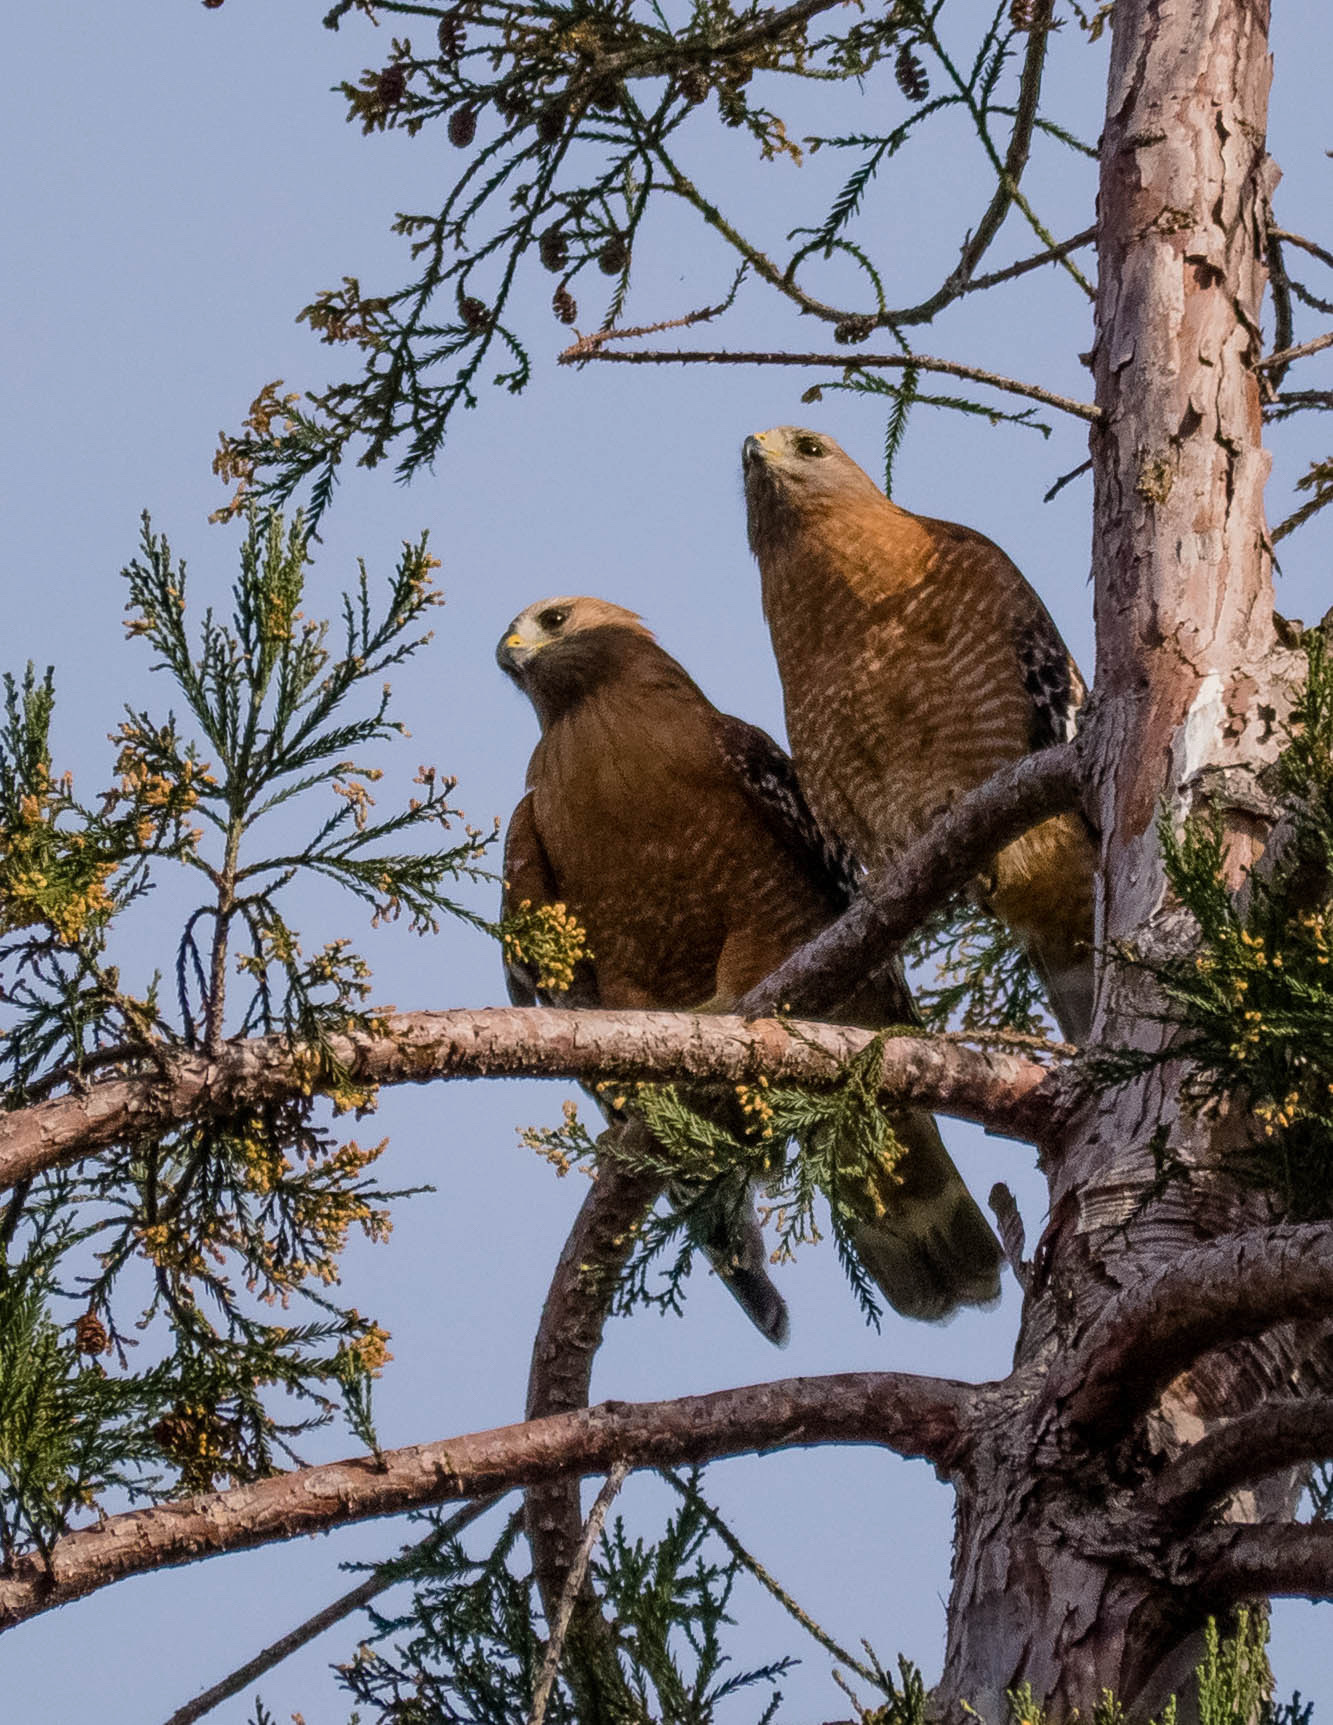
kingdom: Animalia
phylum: Chordata
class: Aves
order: Accipitriformes
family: Accipitridae
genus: Buteo
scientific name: Buteo lineatus
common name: Red-shouldered hawk
